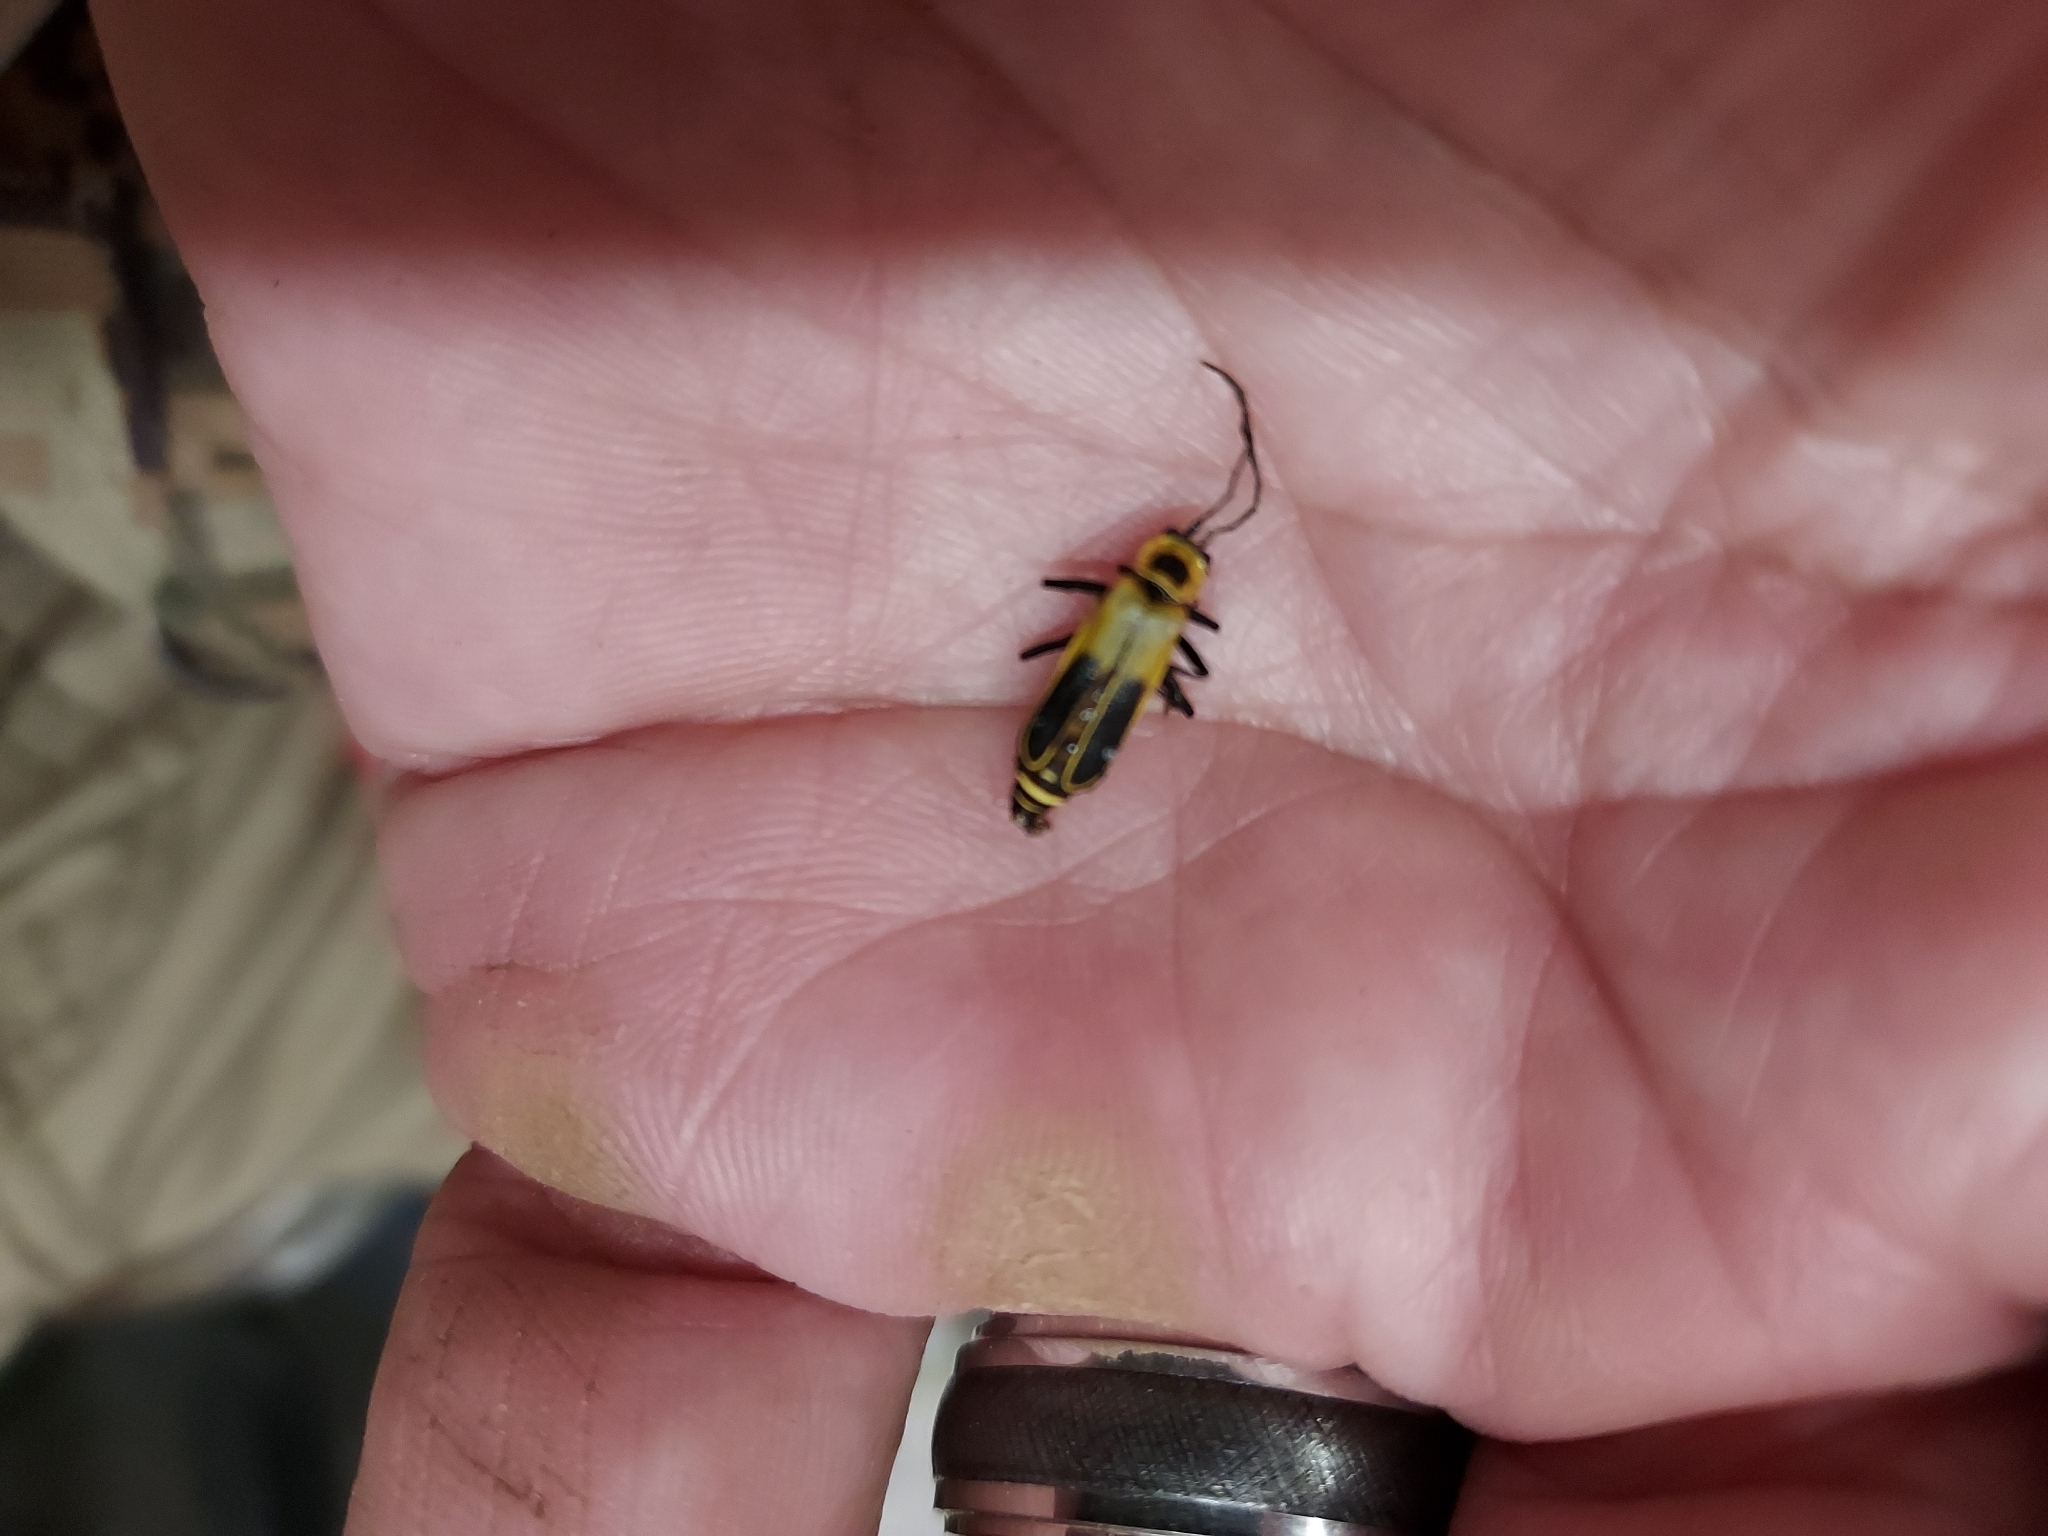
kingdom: Animalia
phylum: Arthropoda
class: Insecta
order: Coleoptera
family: Cantharidae
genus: Chauliognathus
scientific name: Chauliognathus pensylvanicus
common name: Goldenrod soldier beetle
